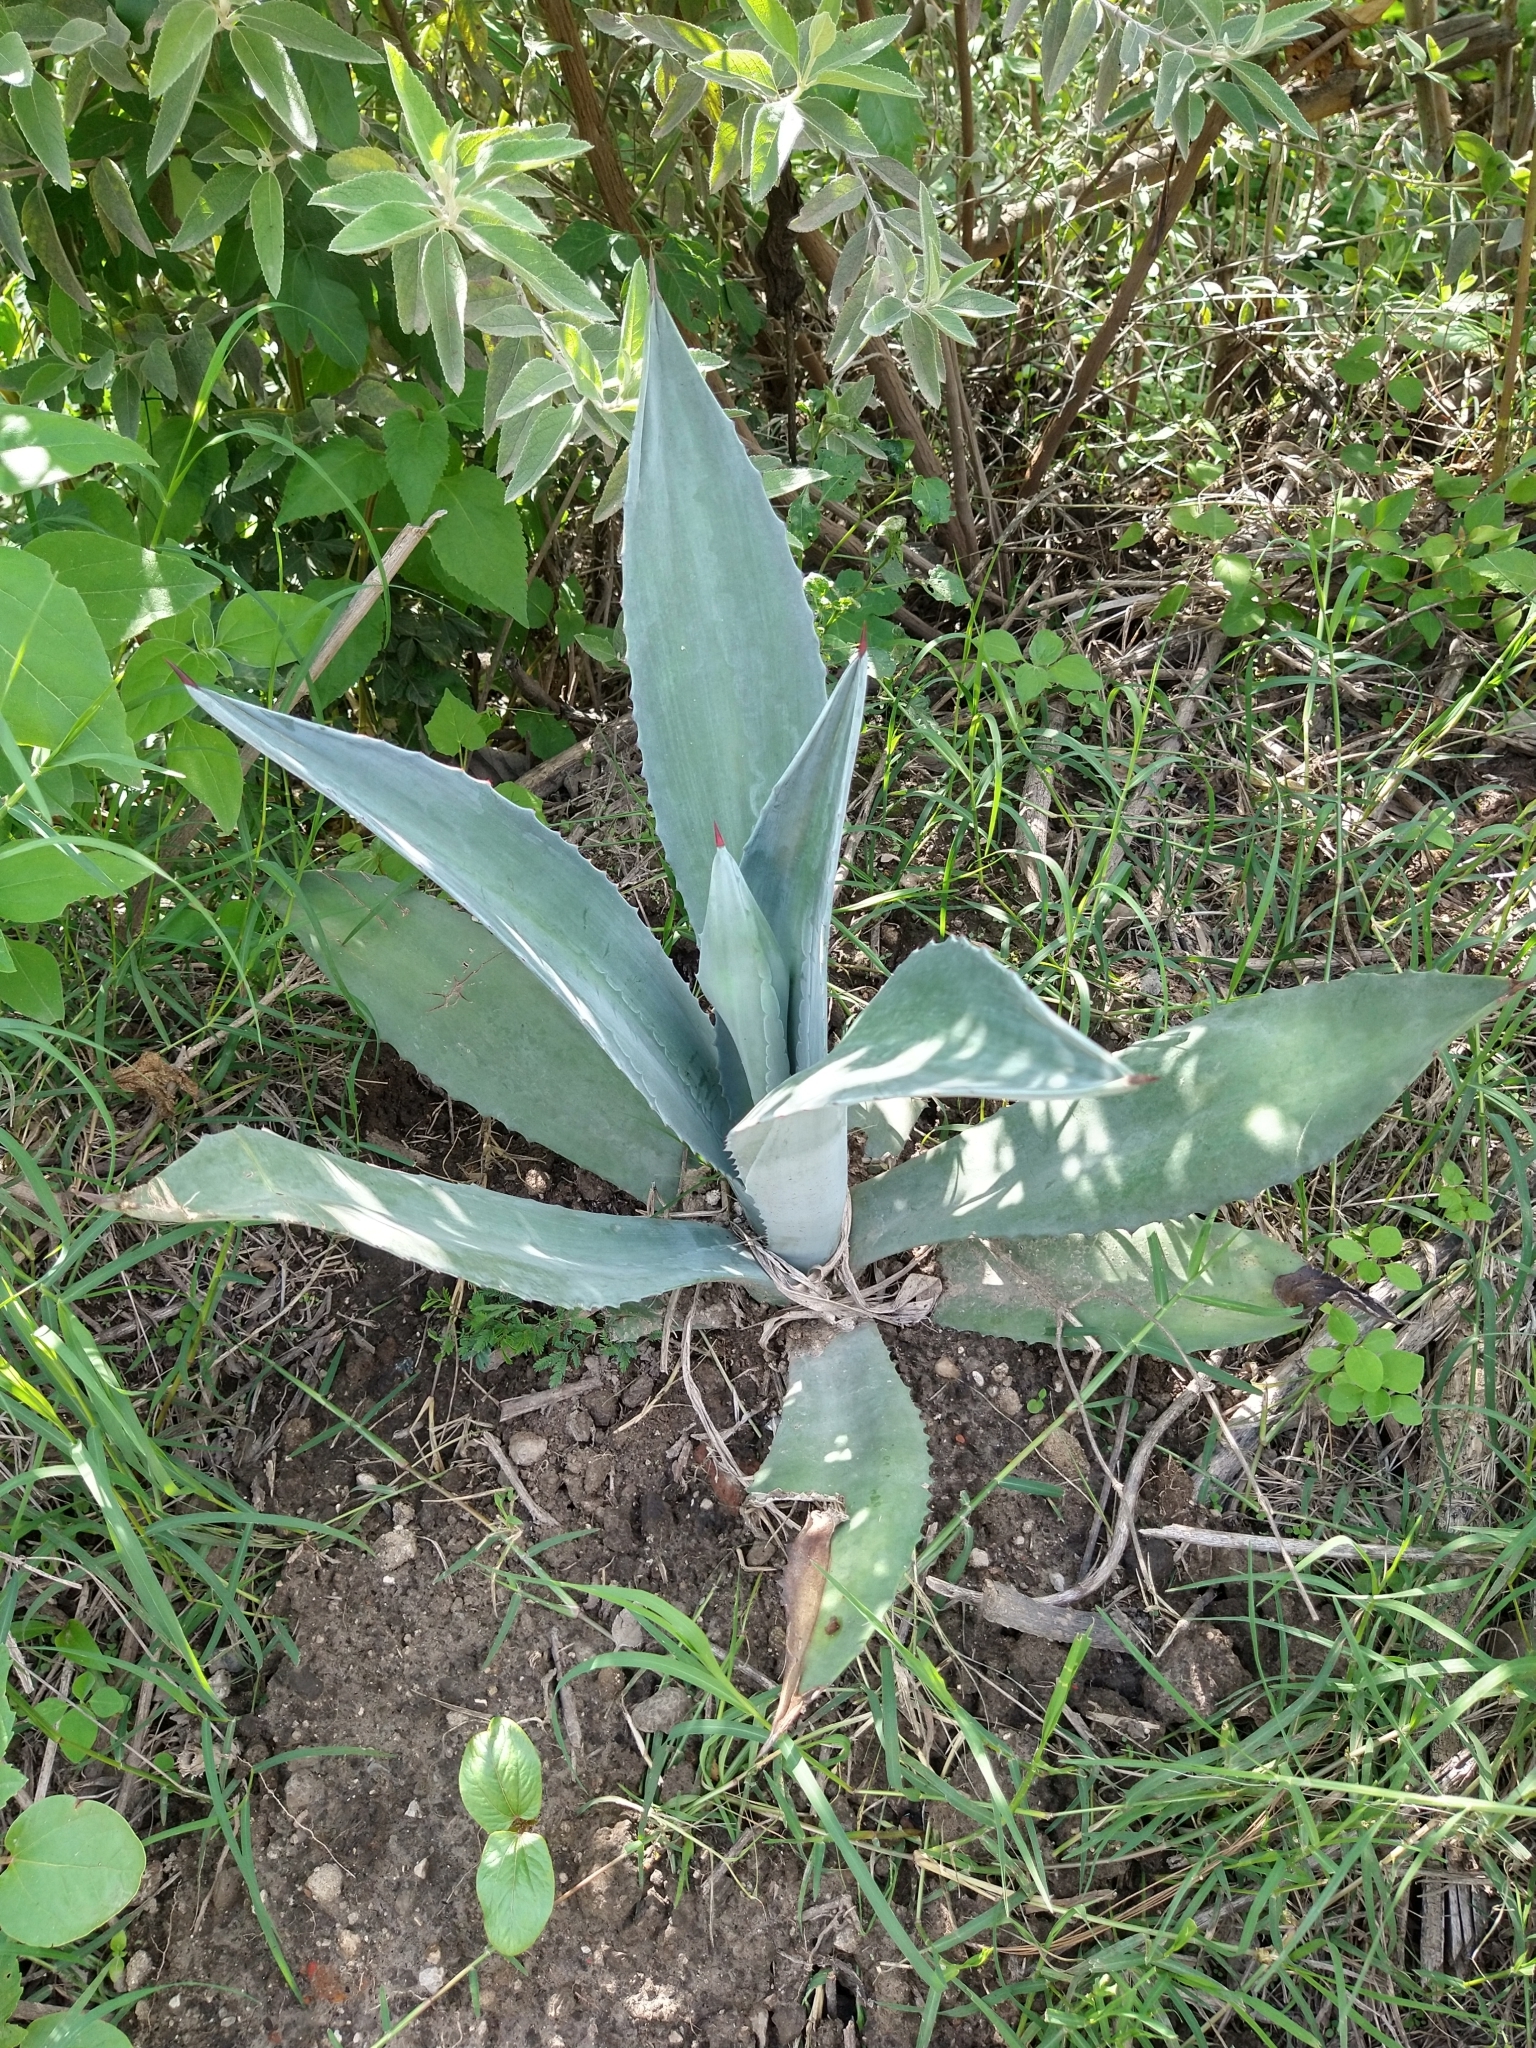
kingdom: Plantae
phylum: Tracheophyta
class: Liliopsida
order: Asparagales
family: Asparagaceae
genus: Agave
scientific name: Agave americana
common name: Centuryplant
